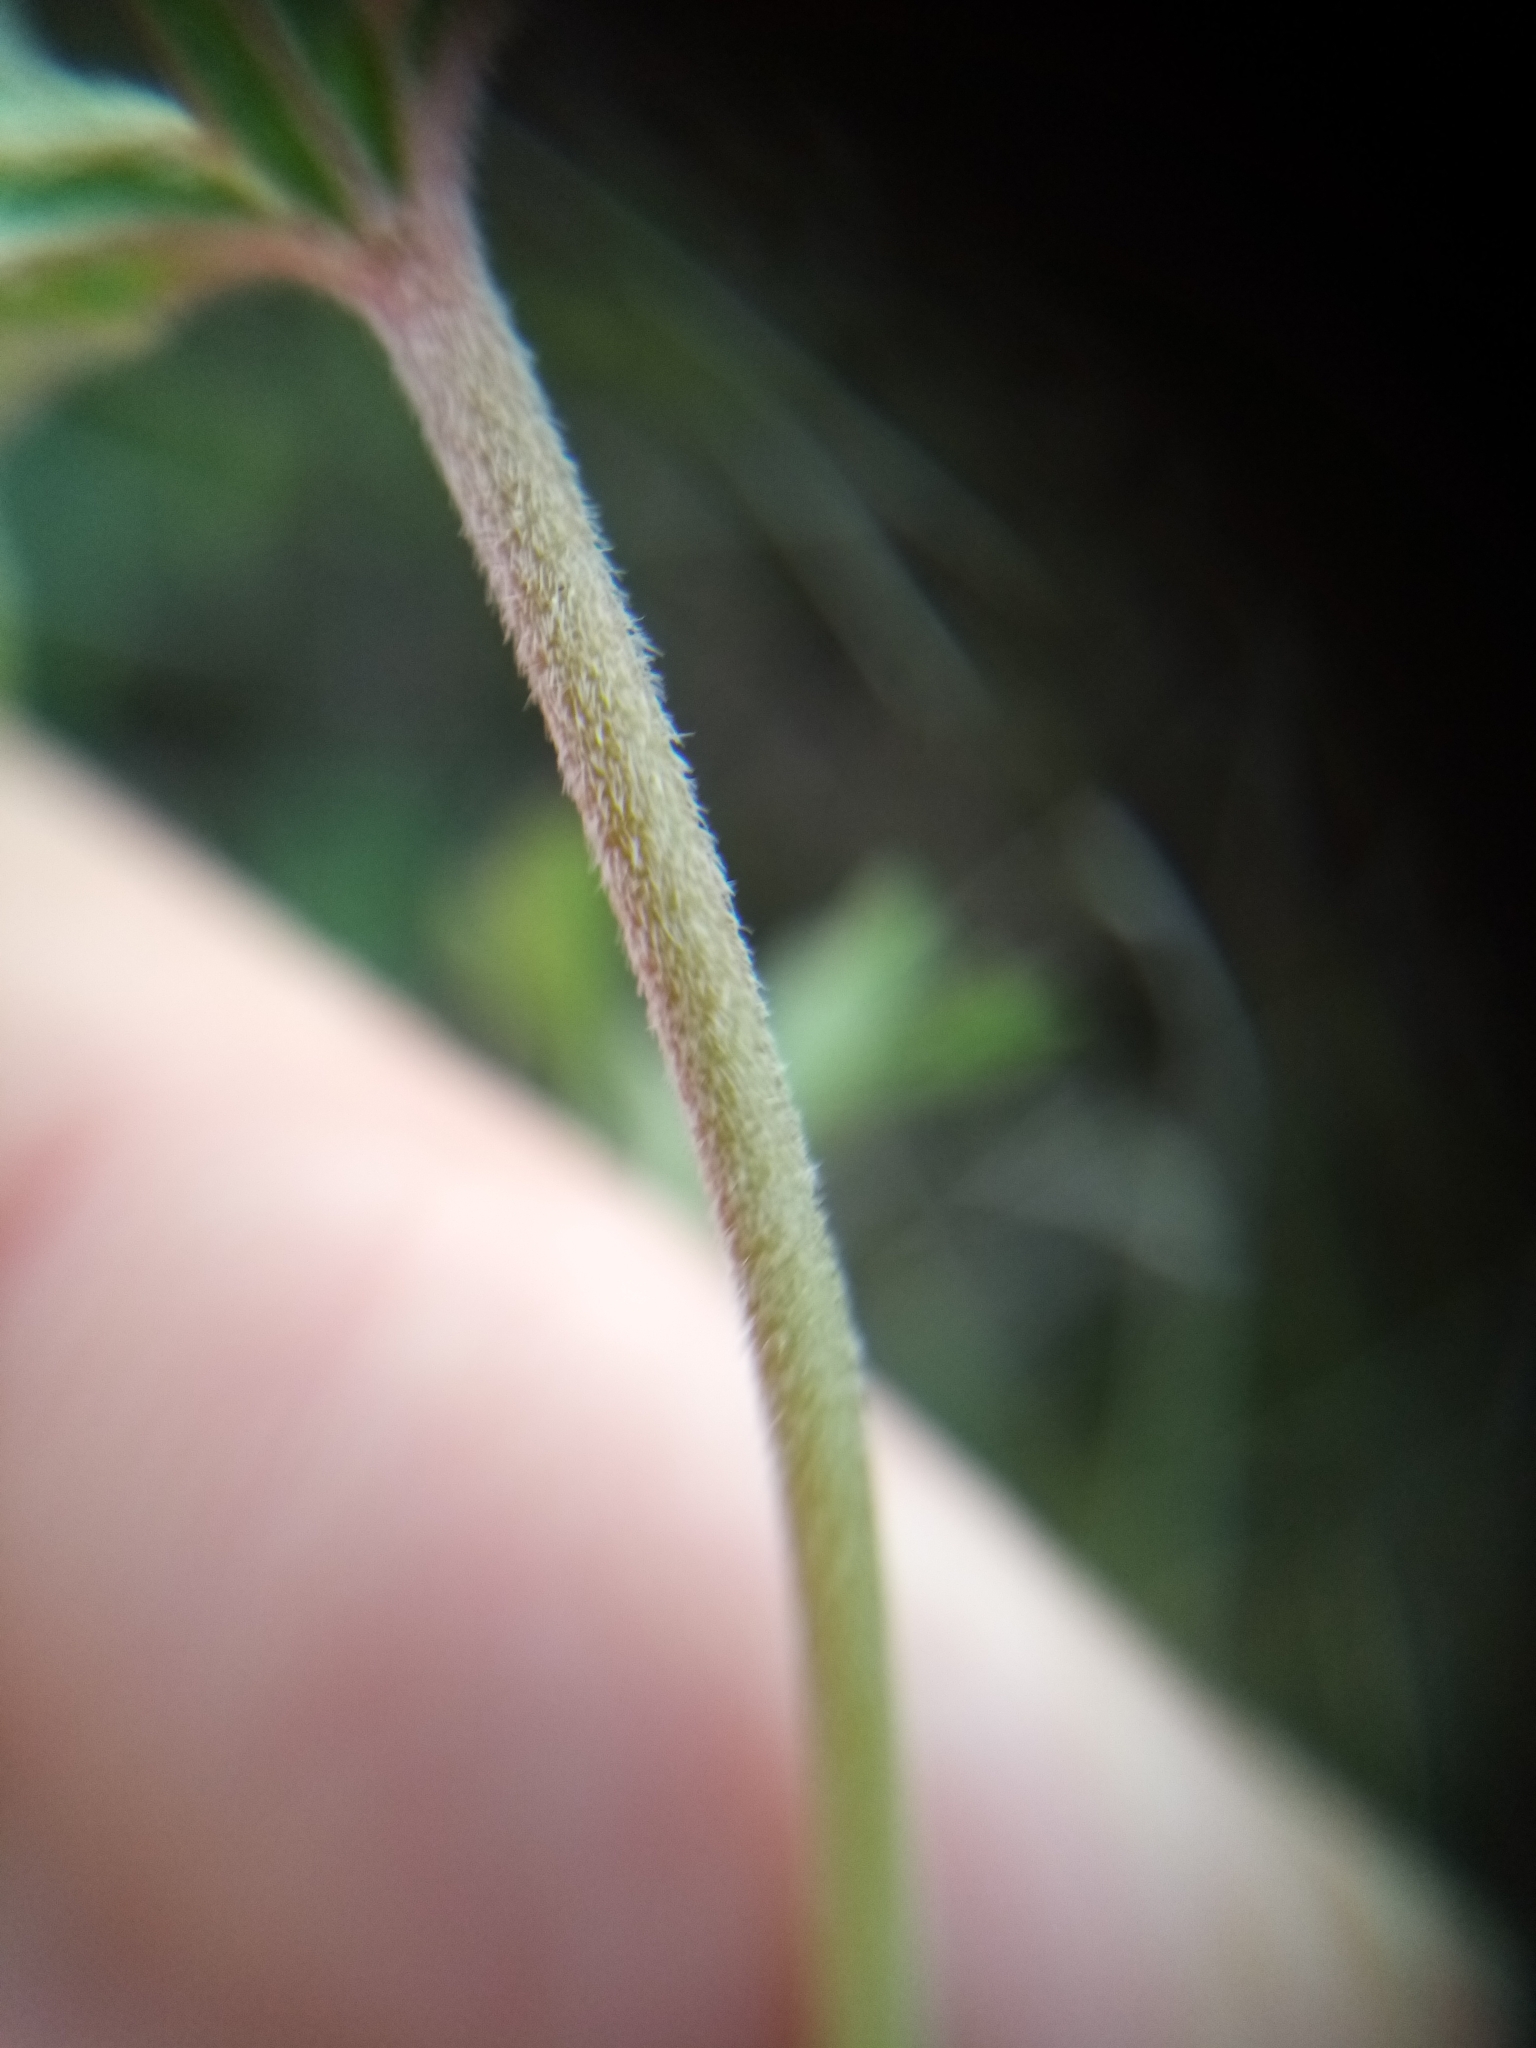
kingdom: Plantae
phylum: Tracheophyta
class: Magnoliopsida
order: Geraniales
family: Geraniaceae
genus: Geranium
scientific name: Geranium retrorsum
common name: New zealand geranium
